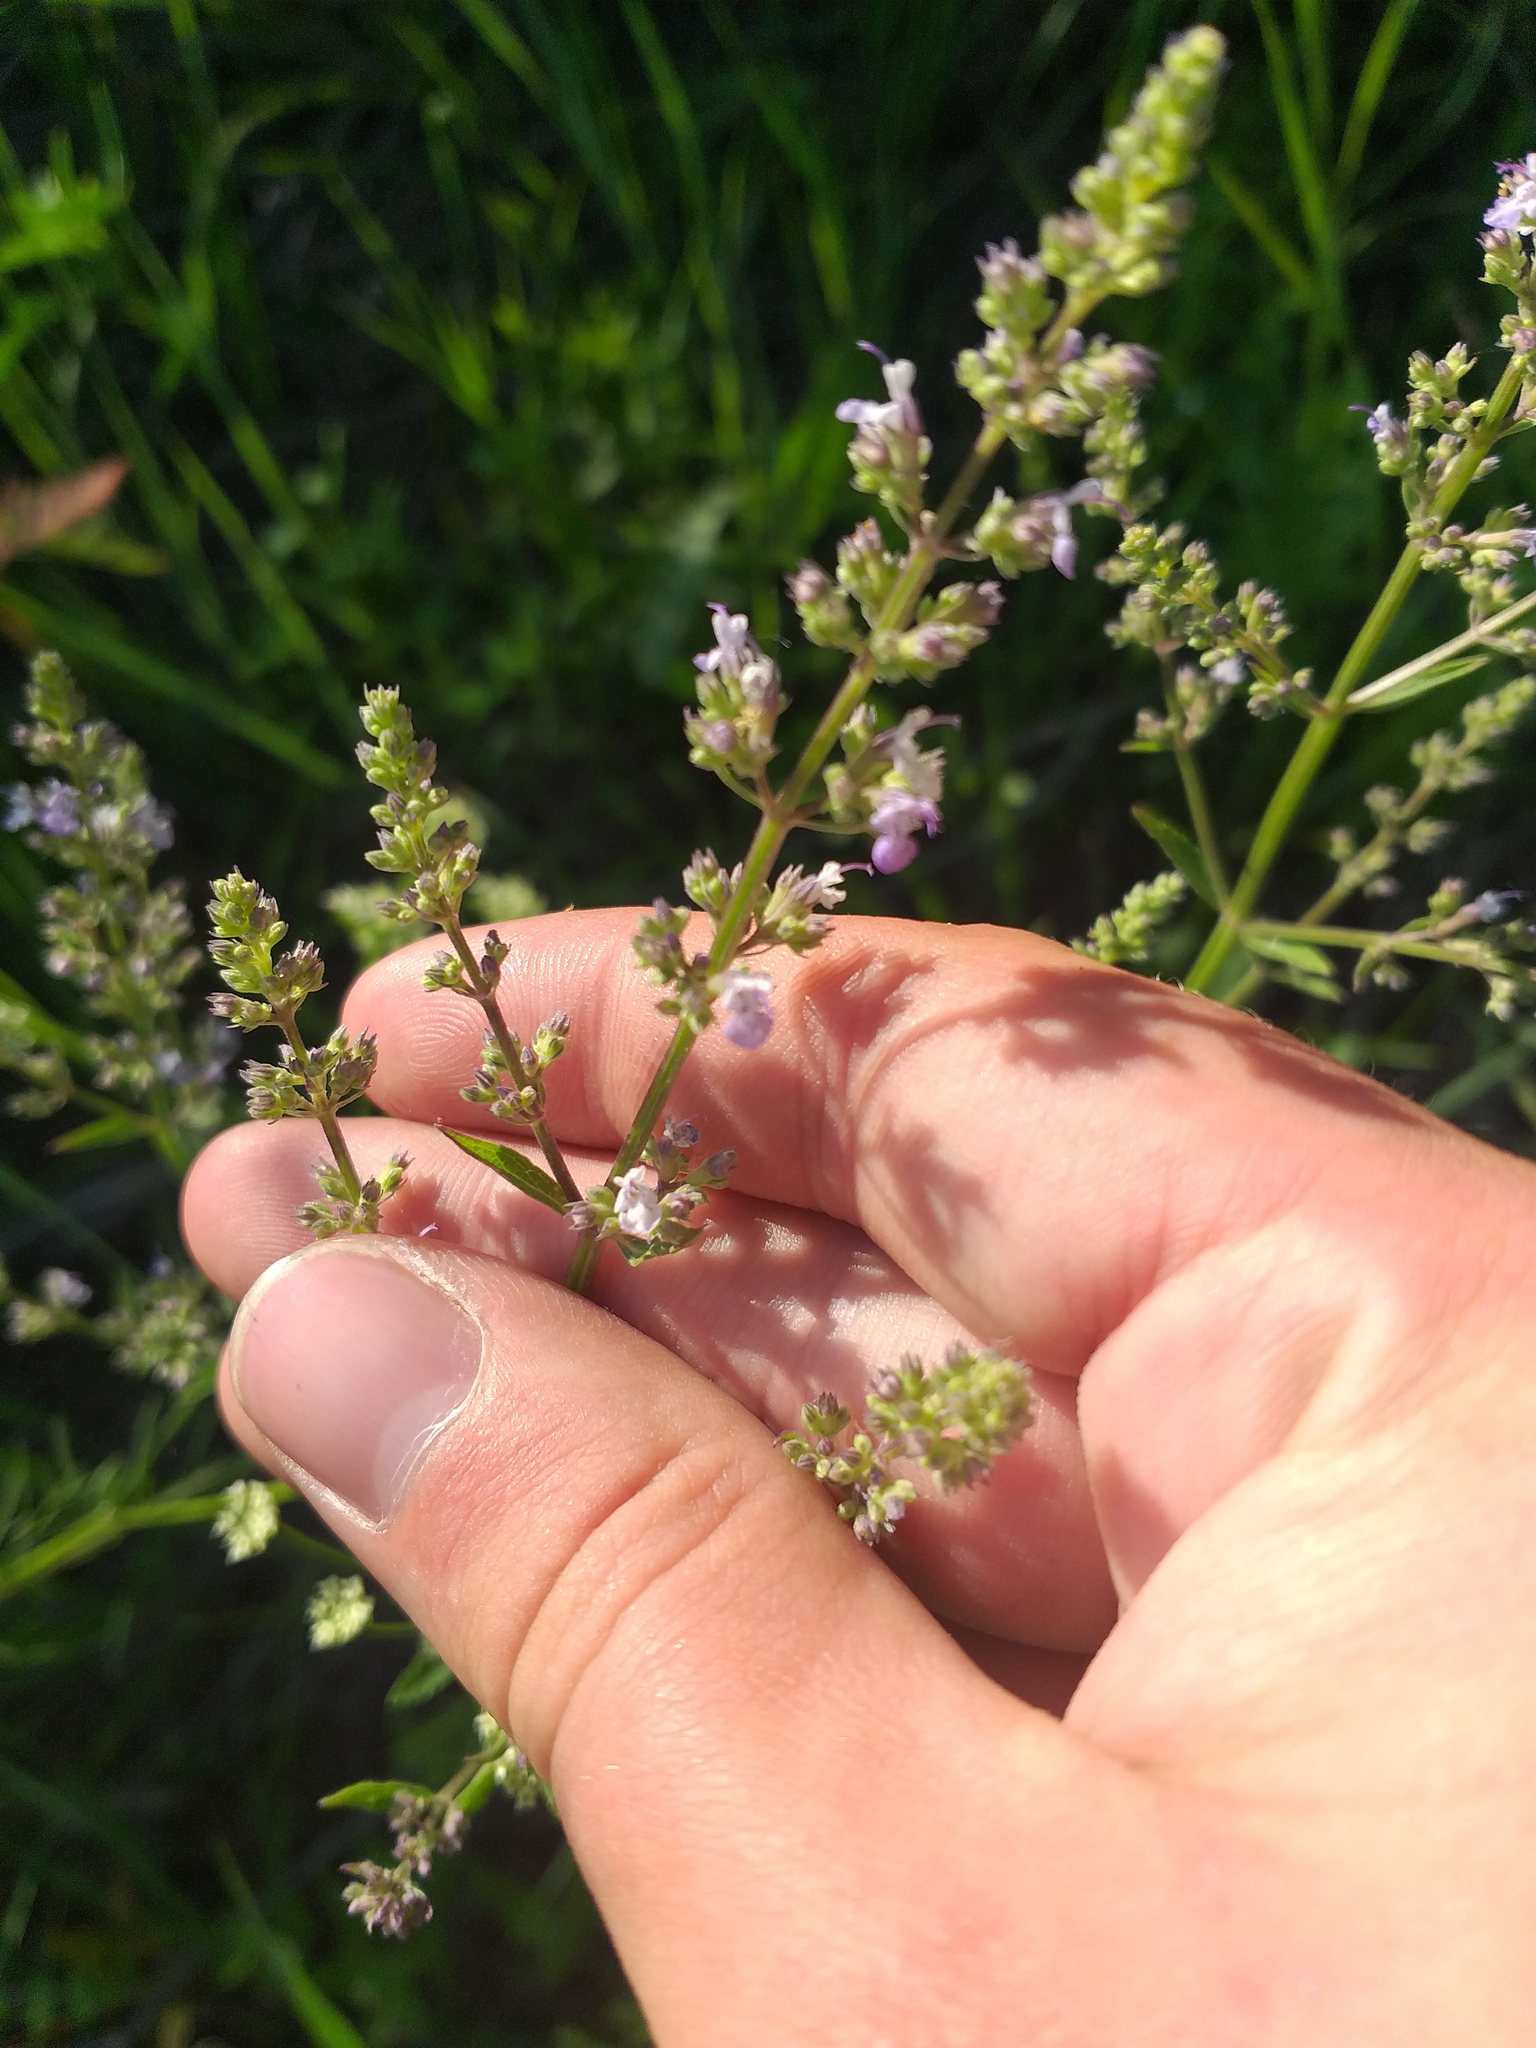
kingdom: Plantae
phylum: Tracheophyta
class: Magnoliopsida
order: Lamiales
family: Lamiaceae
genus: Nepeta
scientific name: Nepeta nuda
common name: Hairless catmint
